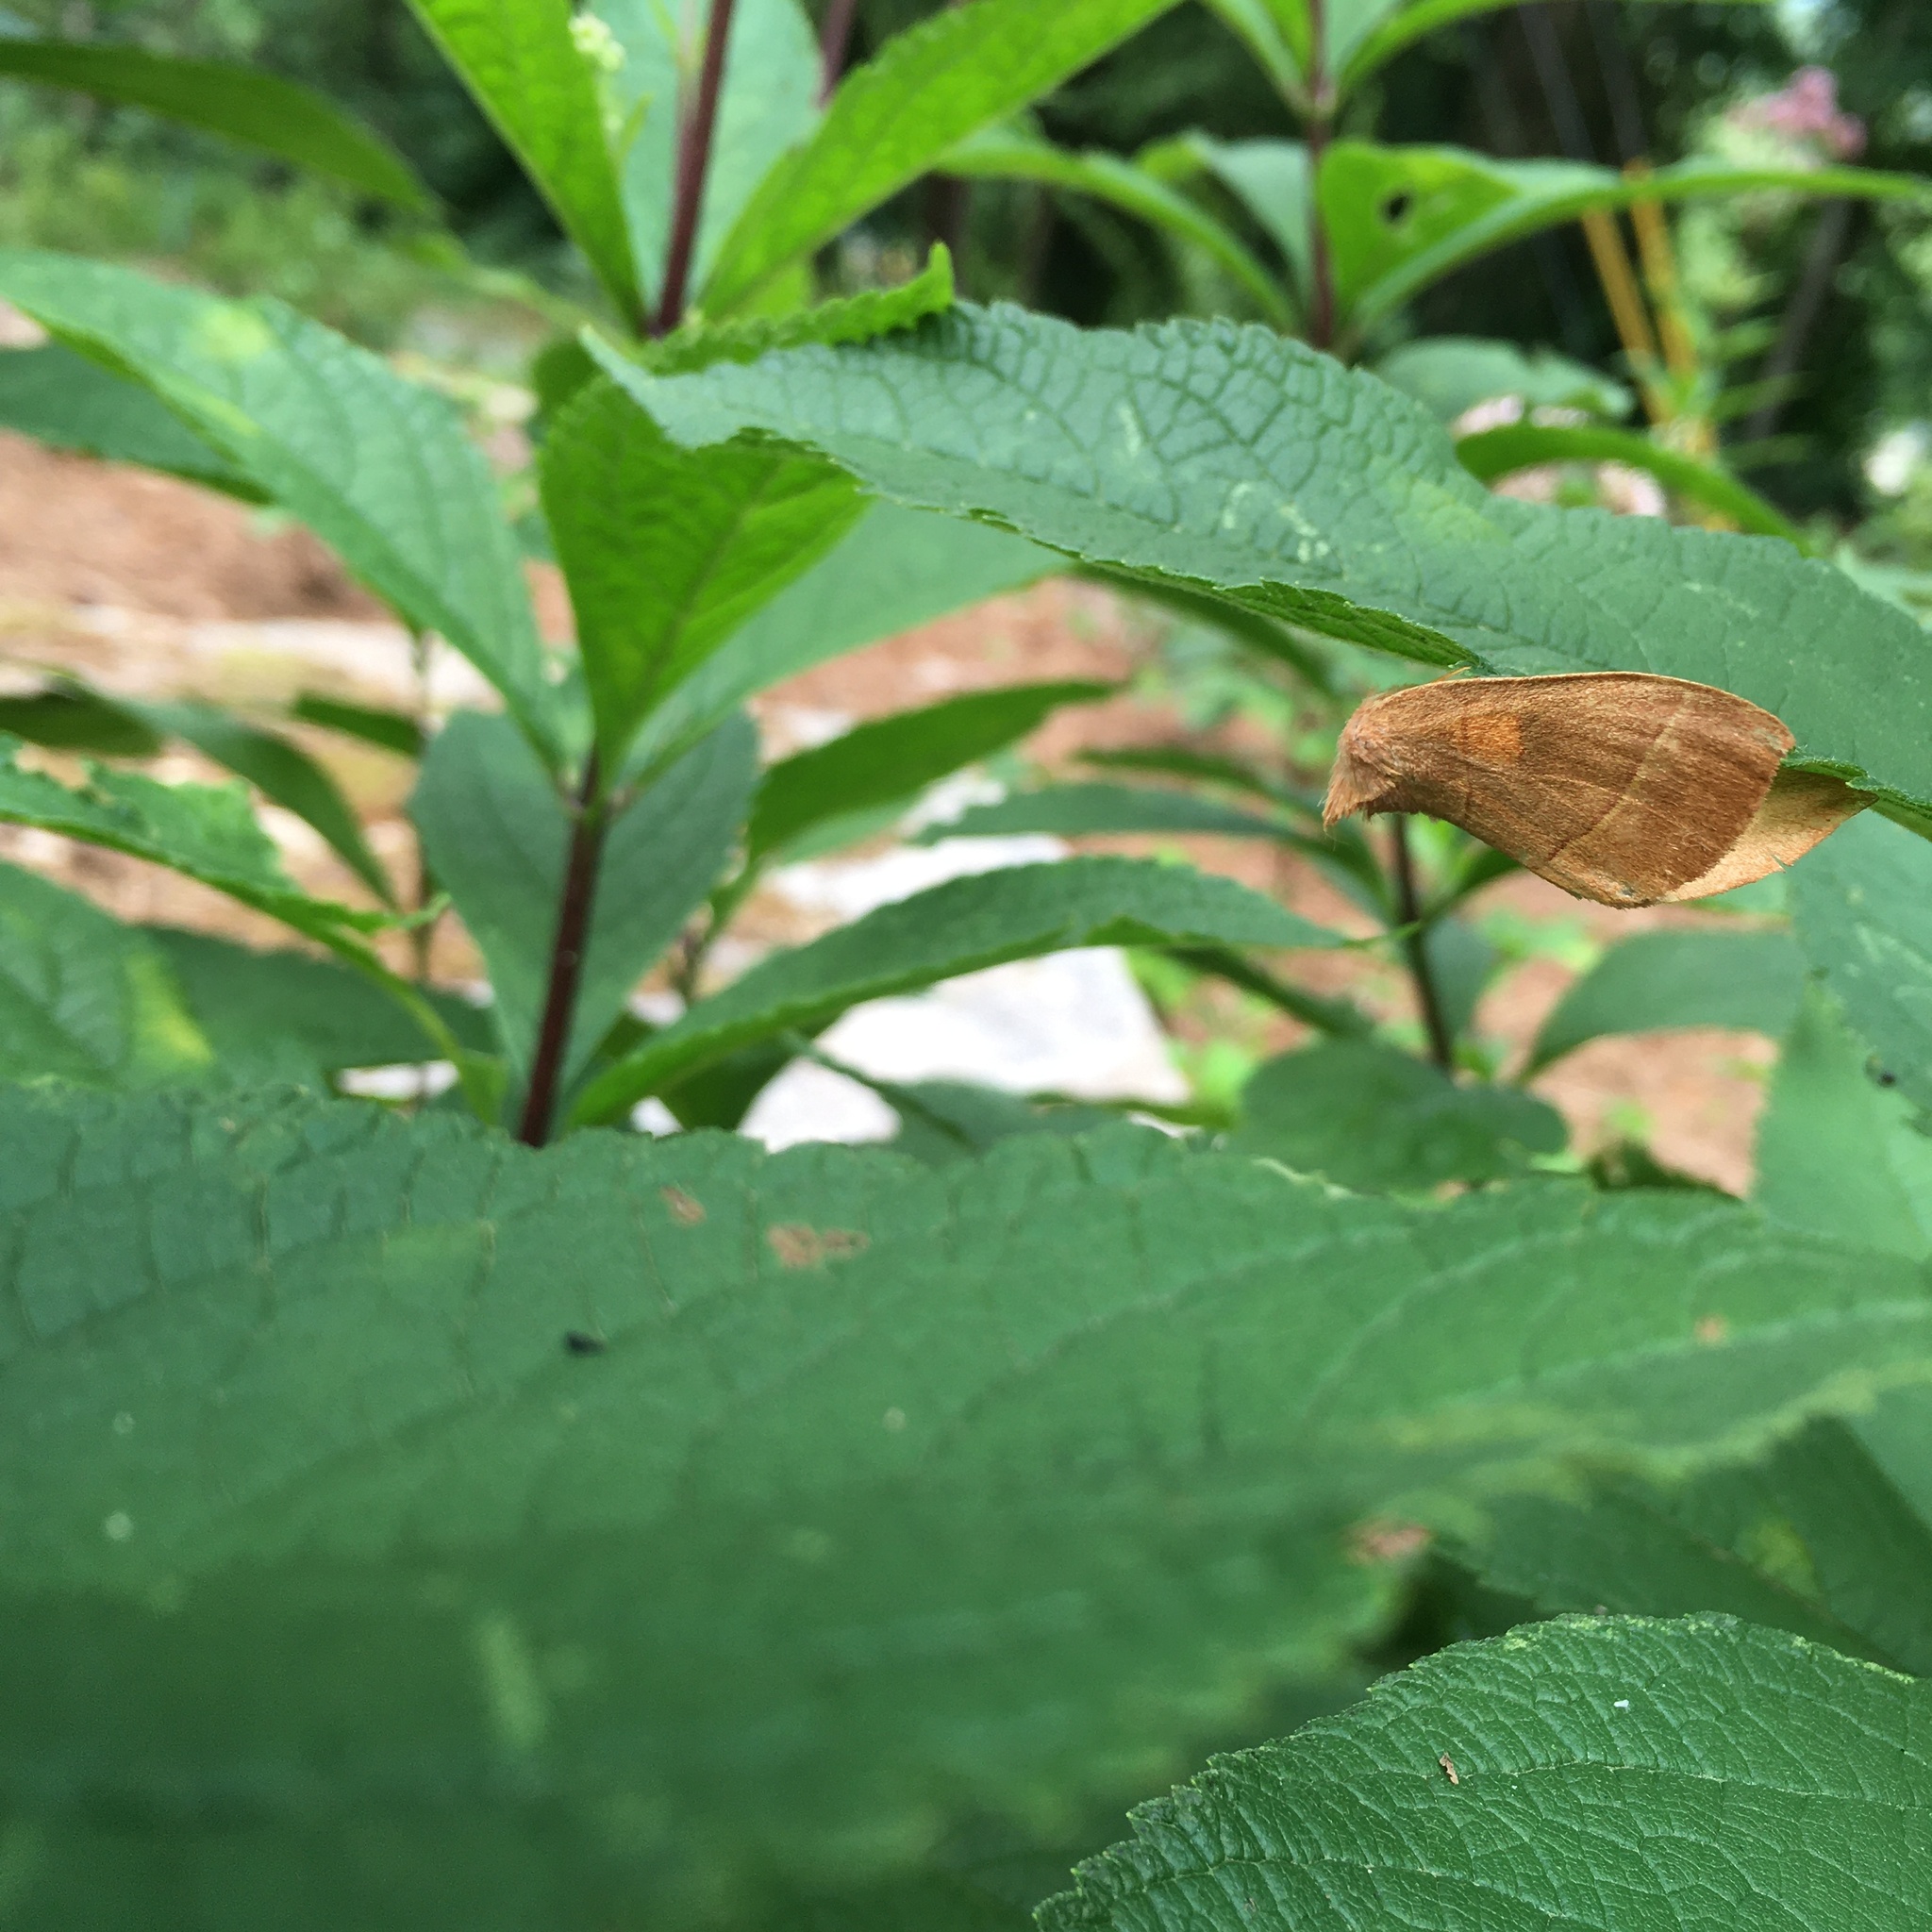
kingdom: Animalia
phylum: Arthropoda
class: Insecta
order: Lepidoptera
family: Notodontidae
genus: Nadata
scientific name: Nadata gibbosa
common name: White-dotted prominent
